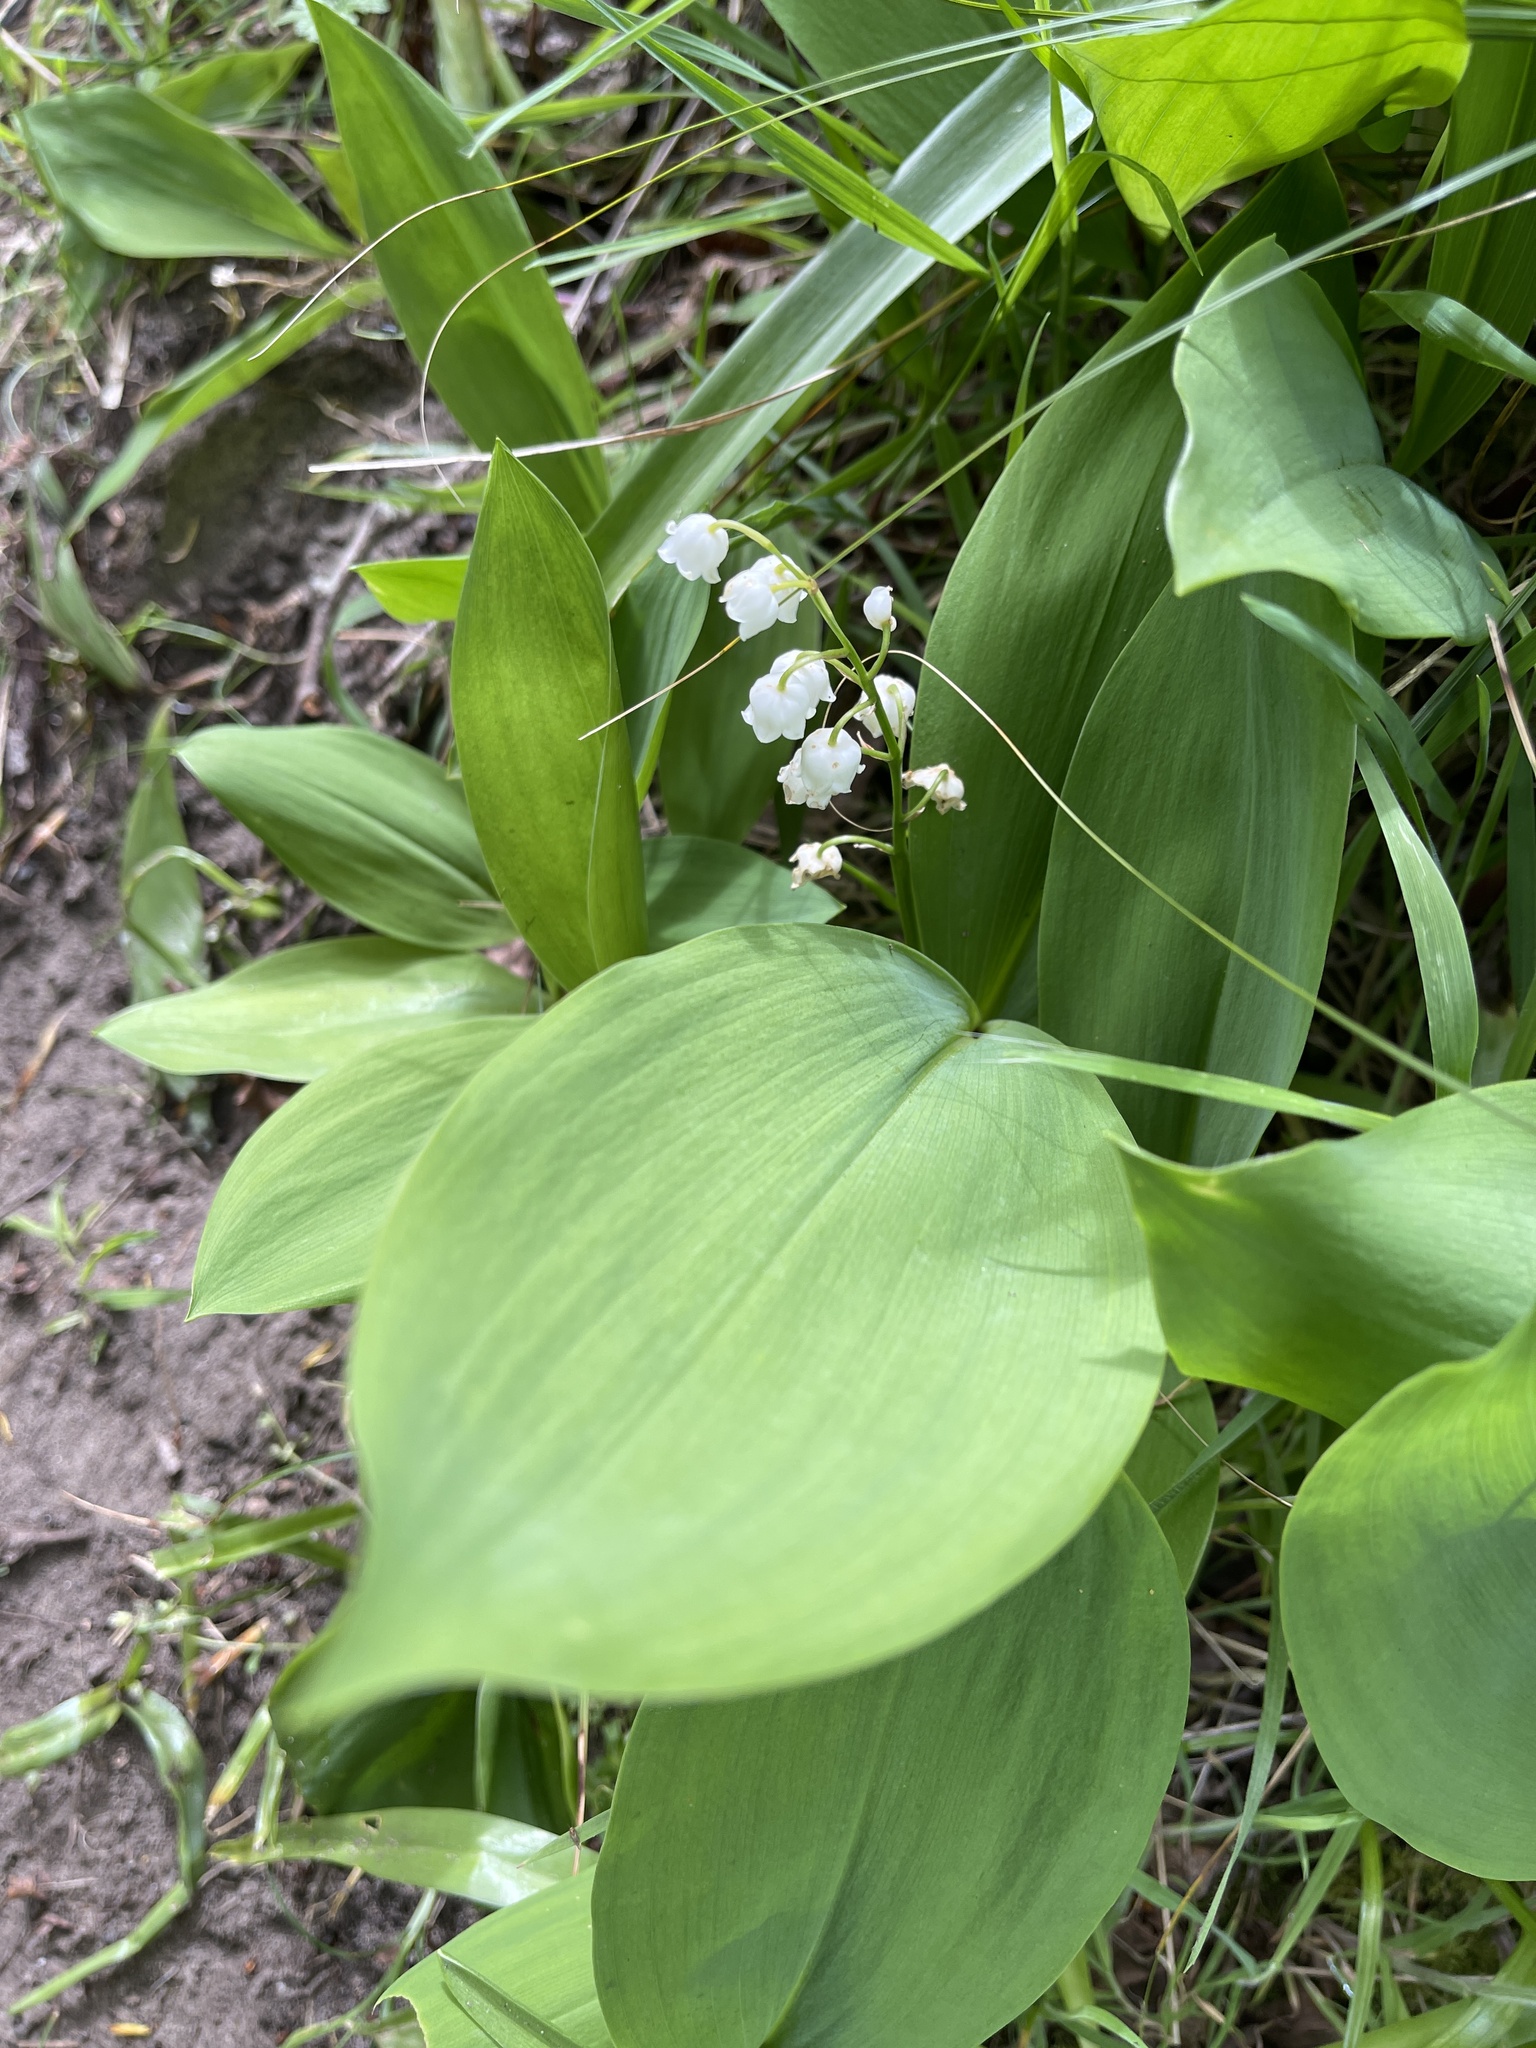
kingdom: Plantae
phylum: Tracheophyta
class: Liliopsida
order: Asparagales
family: Asparagaceae
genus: Convallaria
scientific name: Convallaria majalis
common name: Lily-of-the-valley
